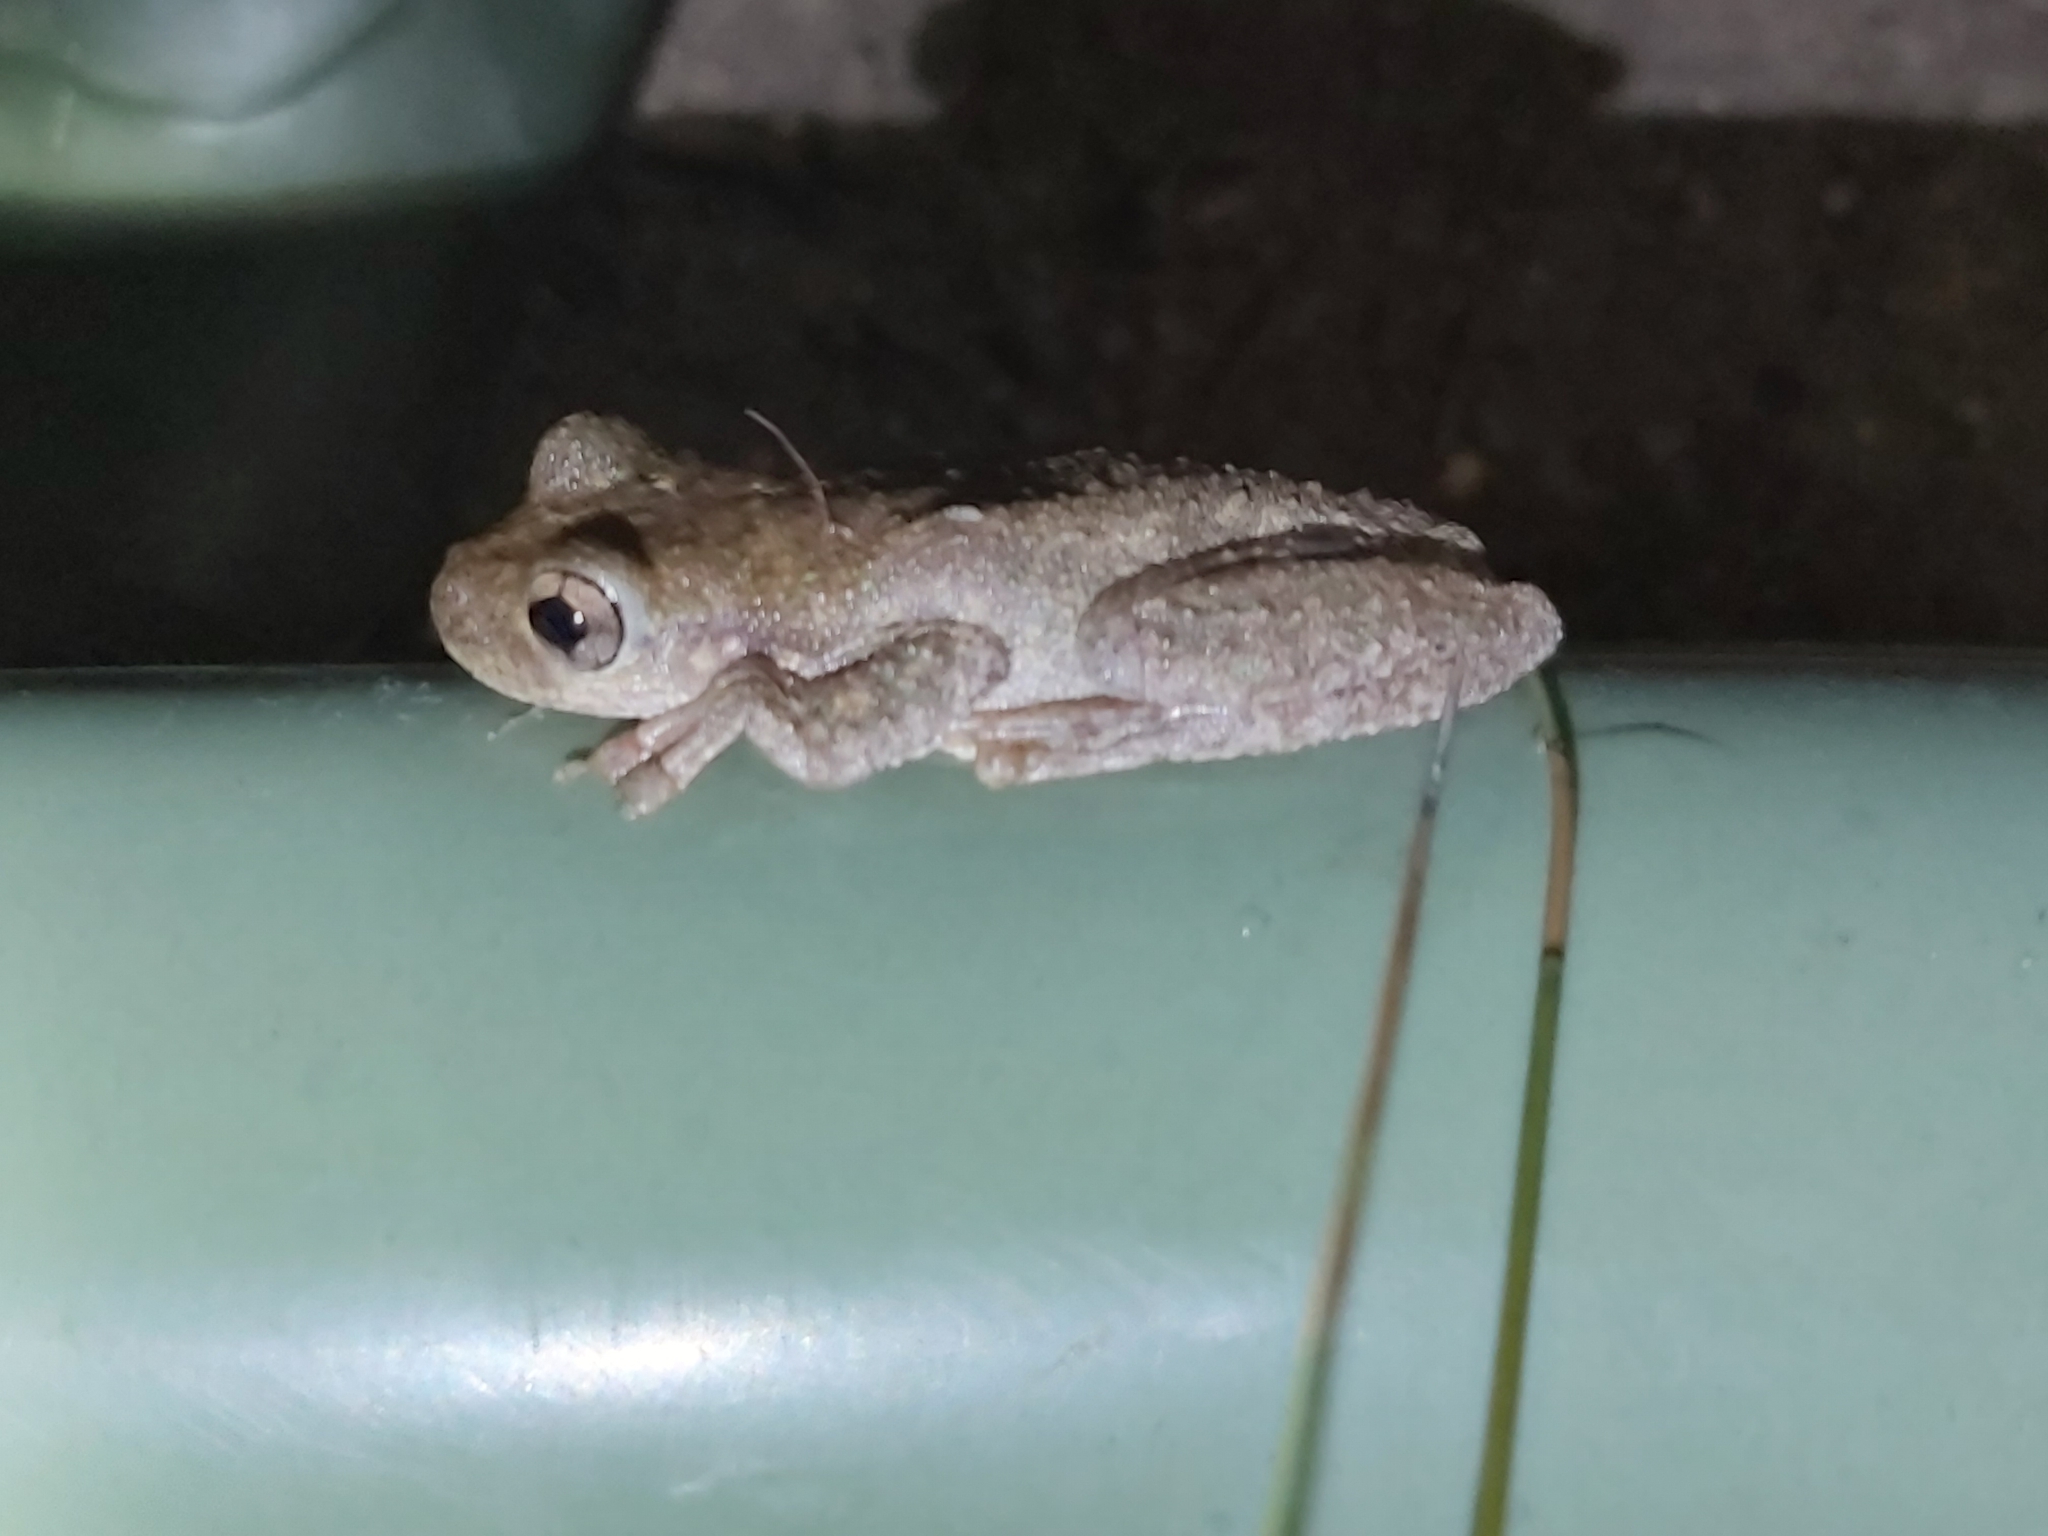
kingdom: Animalia
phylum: Chordata
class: Amphibia
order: Anura
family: Pelodryadidae
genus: Litoria
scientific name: Litoria peronii
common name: Emerald spotted treefrog
